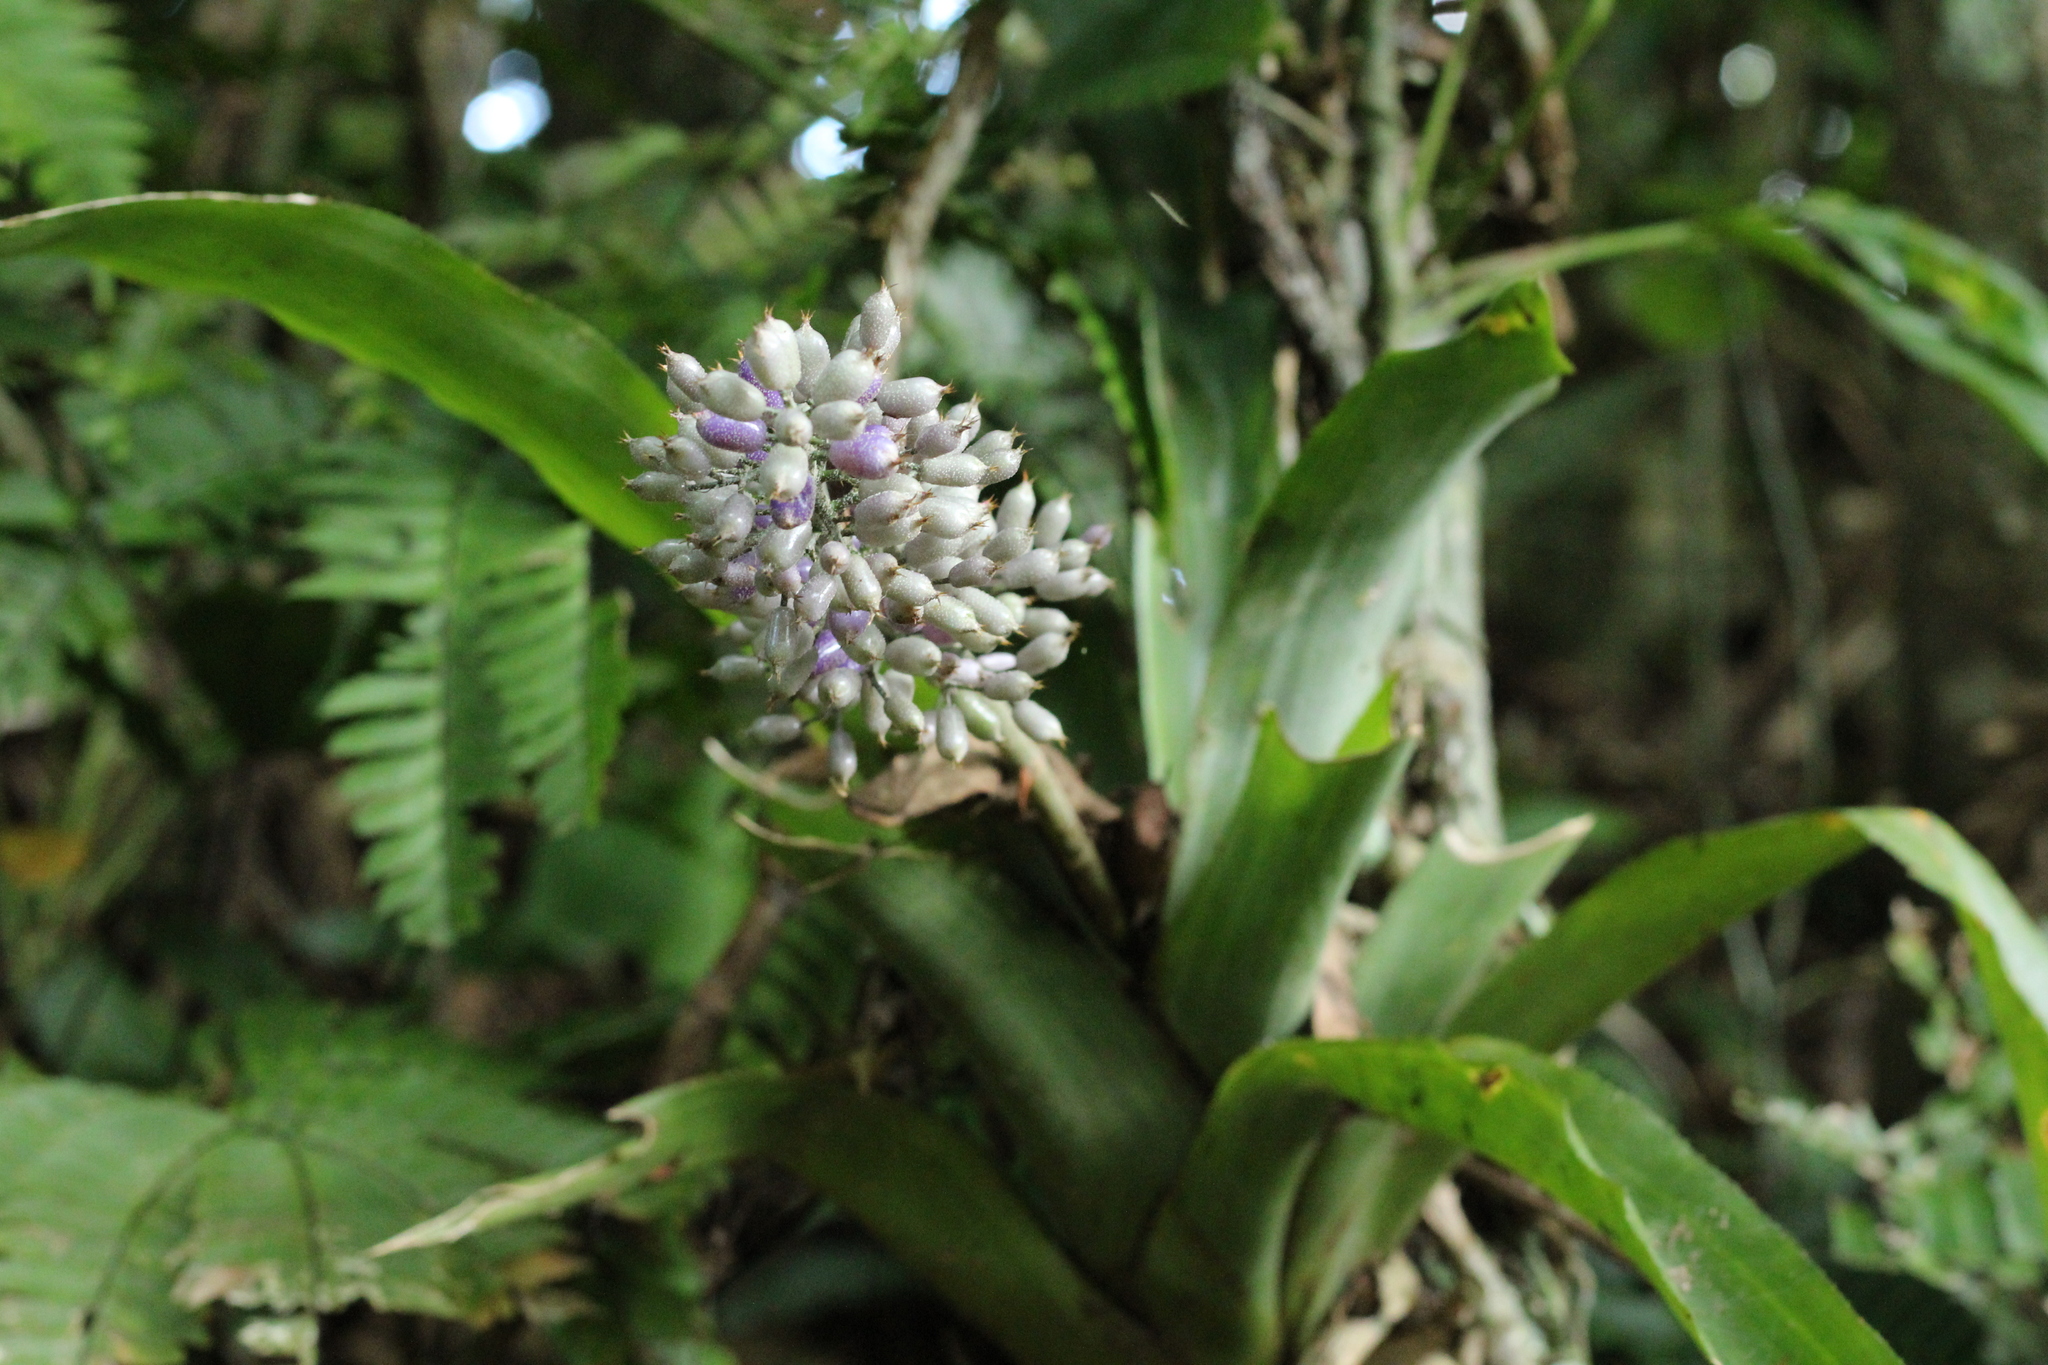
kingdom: Plantae
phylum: Tracheophyta
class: Liliopsida
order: Poales
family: Bromeliaceae
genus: Aechmea
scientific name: Aechmea mexicana
